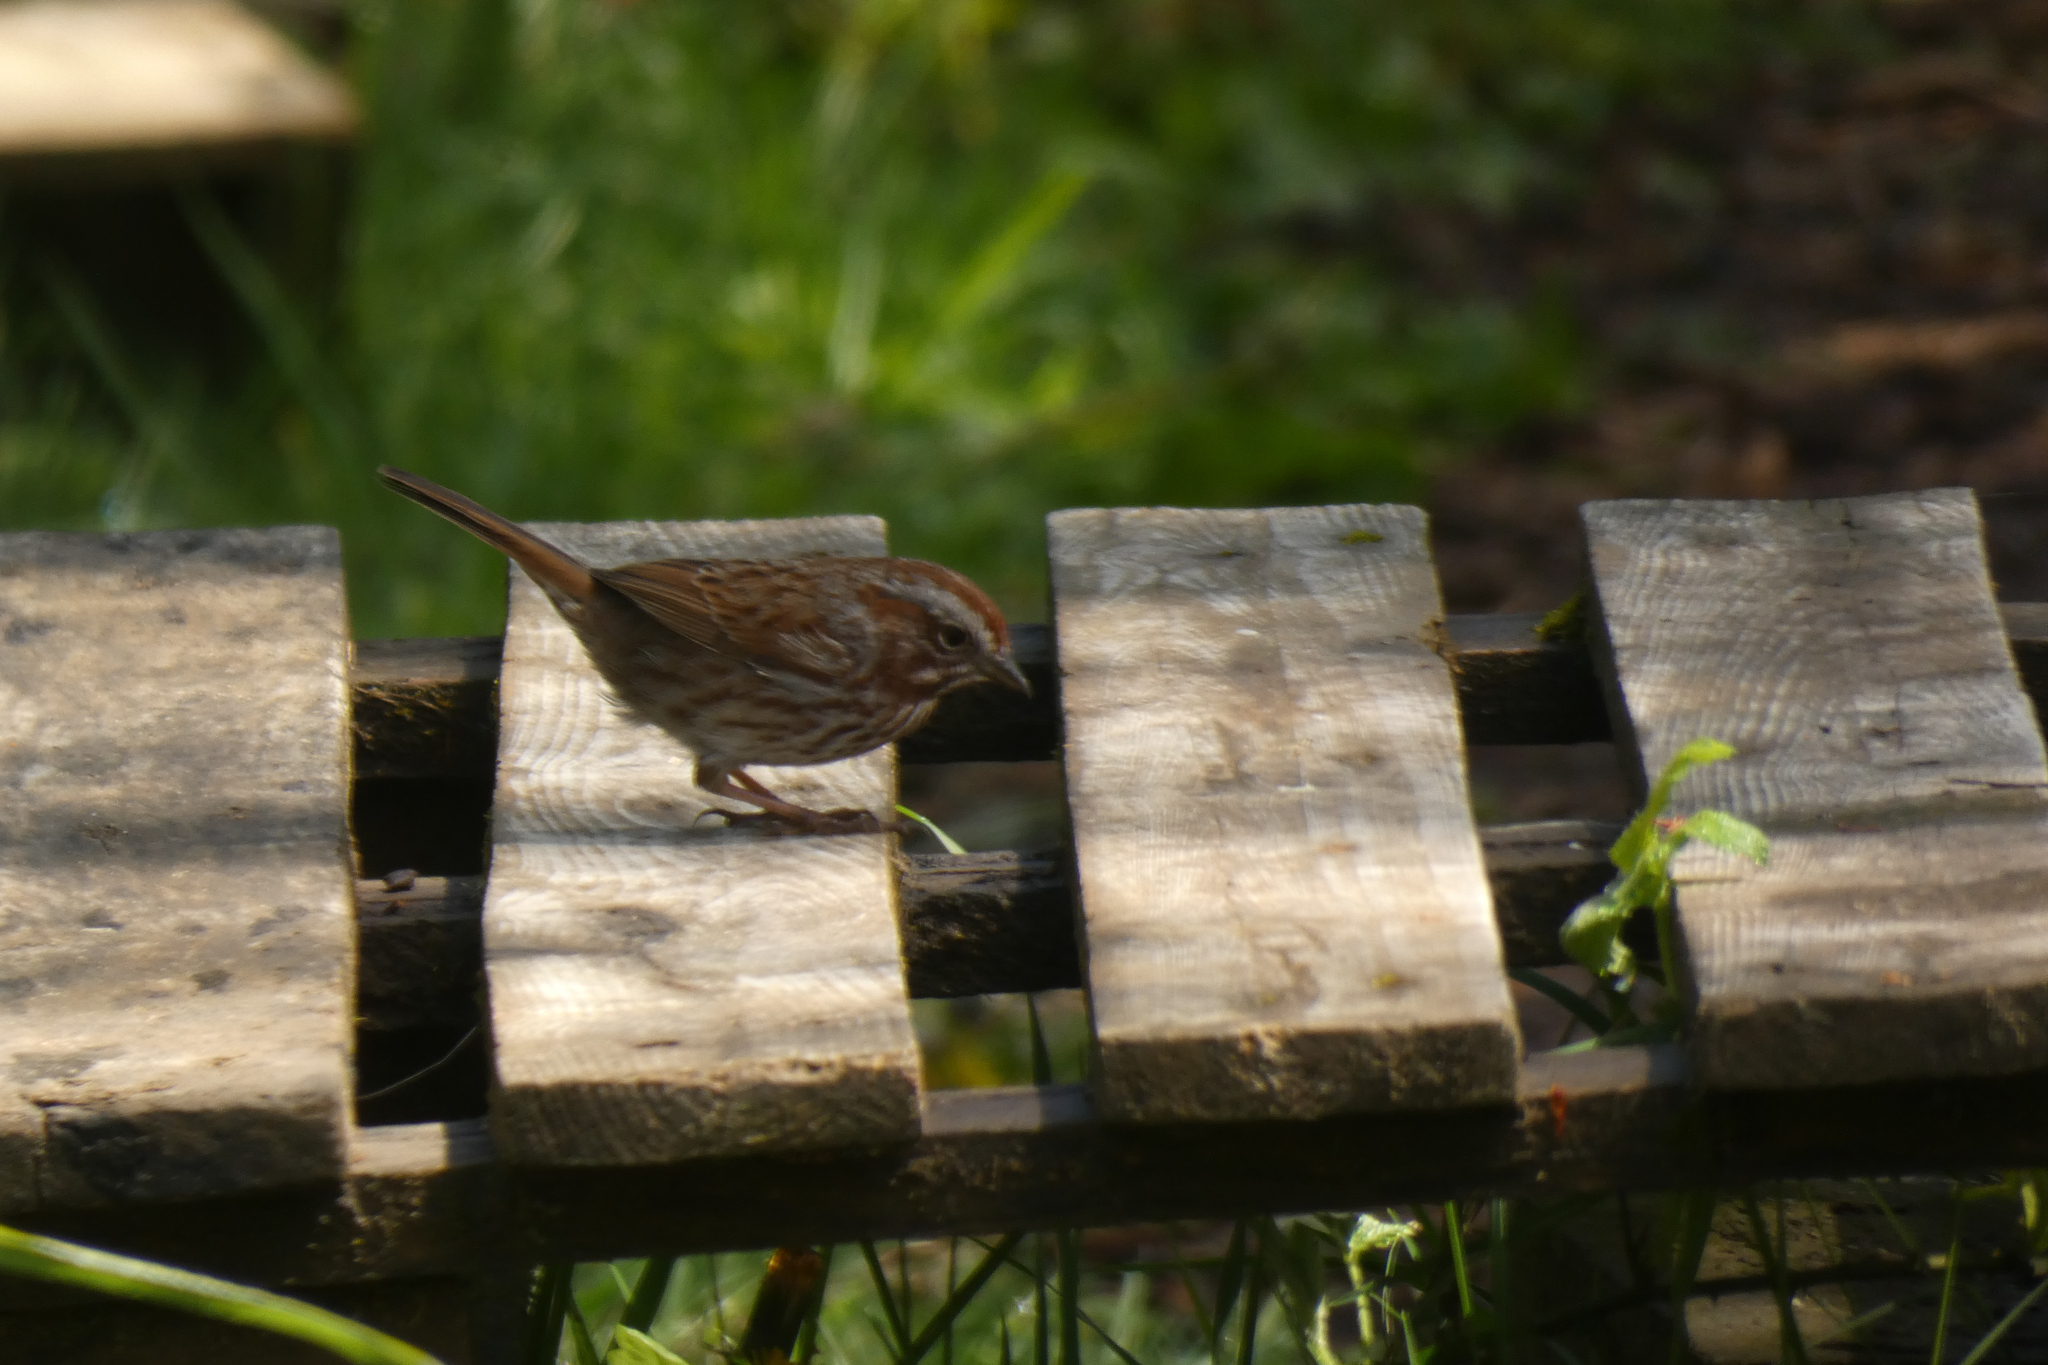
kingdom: Animalia
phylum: Chordata
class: Aves
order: Passeriformes
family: Passerellidae
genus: Melospiza
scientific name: Melospiza melodia
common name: Song sparrow
